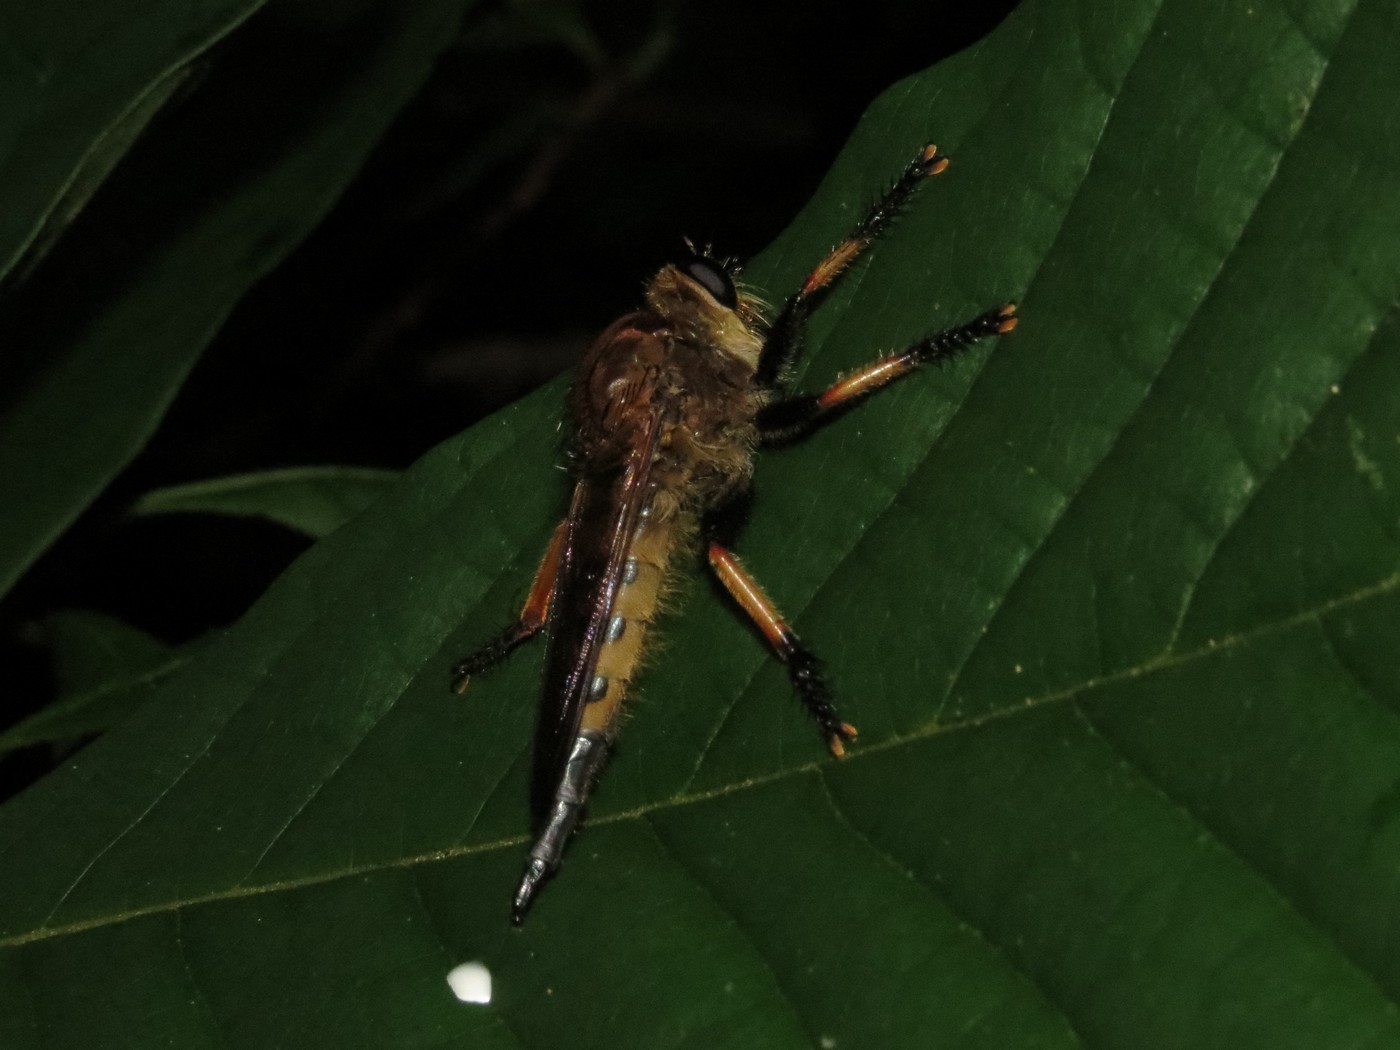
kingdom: Animalia
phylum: Arthropoda
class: Insecta
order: Diptera
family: Asilidae
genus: Promachus
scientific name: Promachus rufipes
